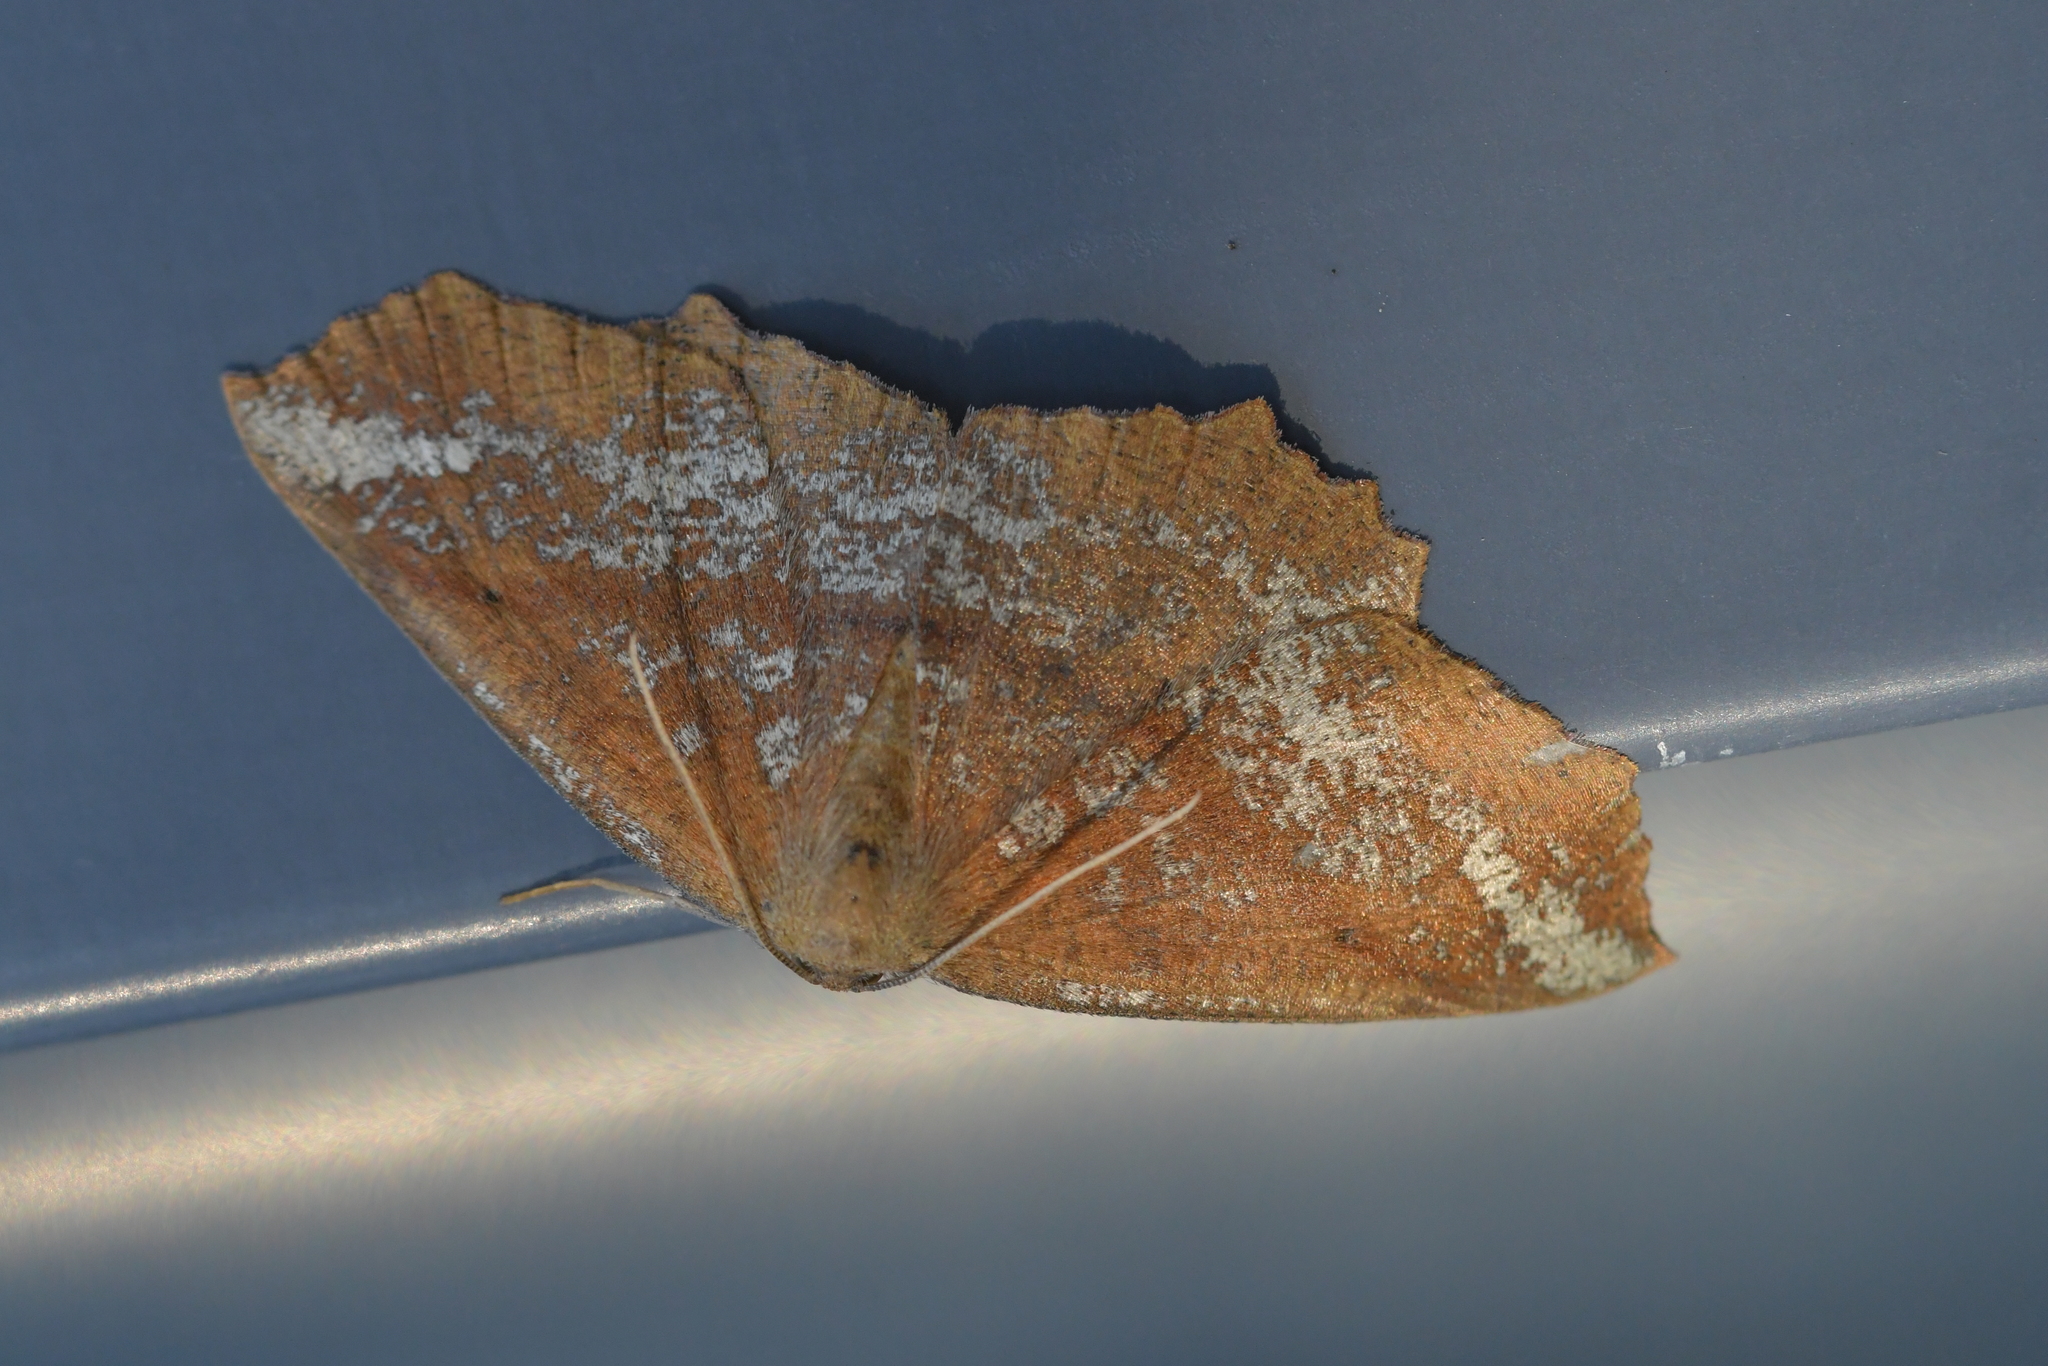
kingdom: Animalia
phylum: Arthropoda
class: Insecta
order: Lepidoptera
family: Geometridae
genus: Xyridacma
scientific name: Xyridacma ustaria
